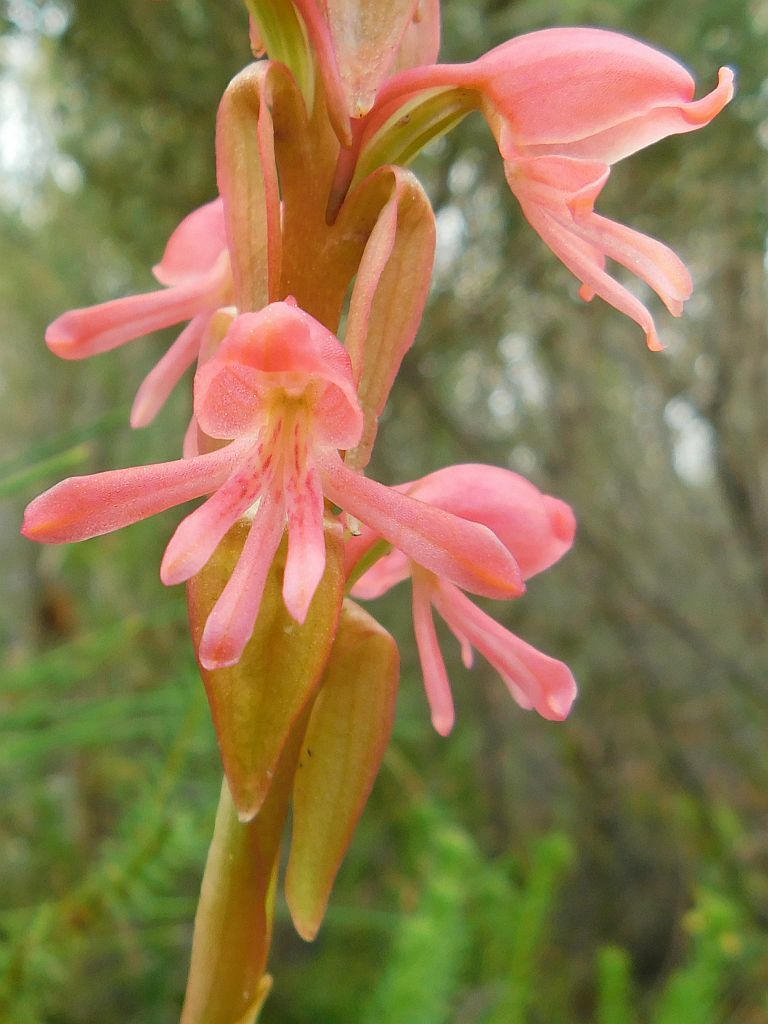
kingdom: Plantae
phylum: Tracheophyta
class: Liliopsida
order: Asparagales
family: Orchidaceae
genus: Satyrium
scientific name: Satyrium
